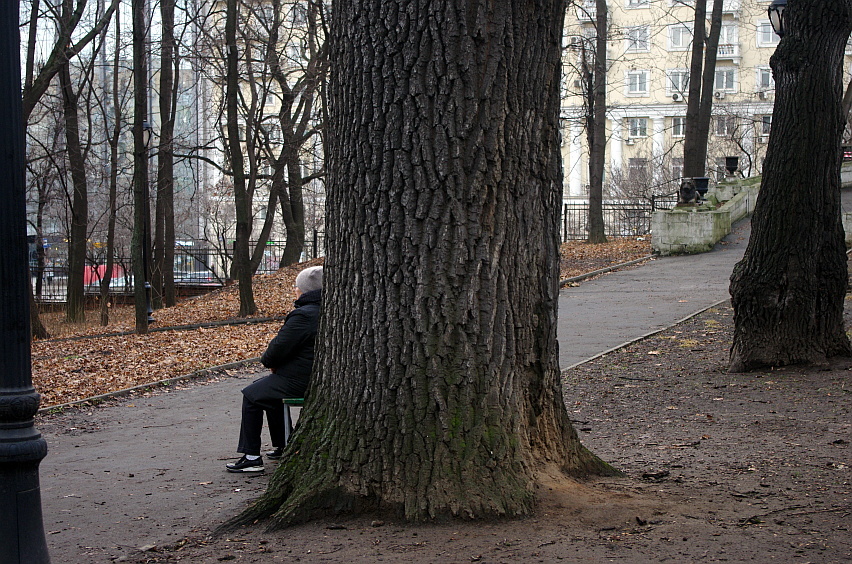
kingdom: Plantae
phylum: Tracheophyta
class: Magnoliopsida
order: Fagales
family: Fagaceae
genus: Quercus
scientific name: Quercus robur
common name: Pedunculate oak
